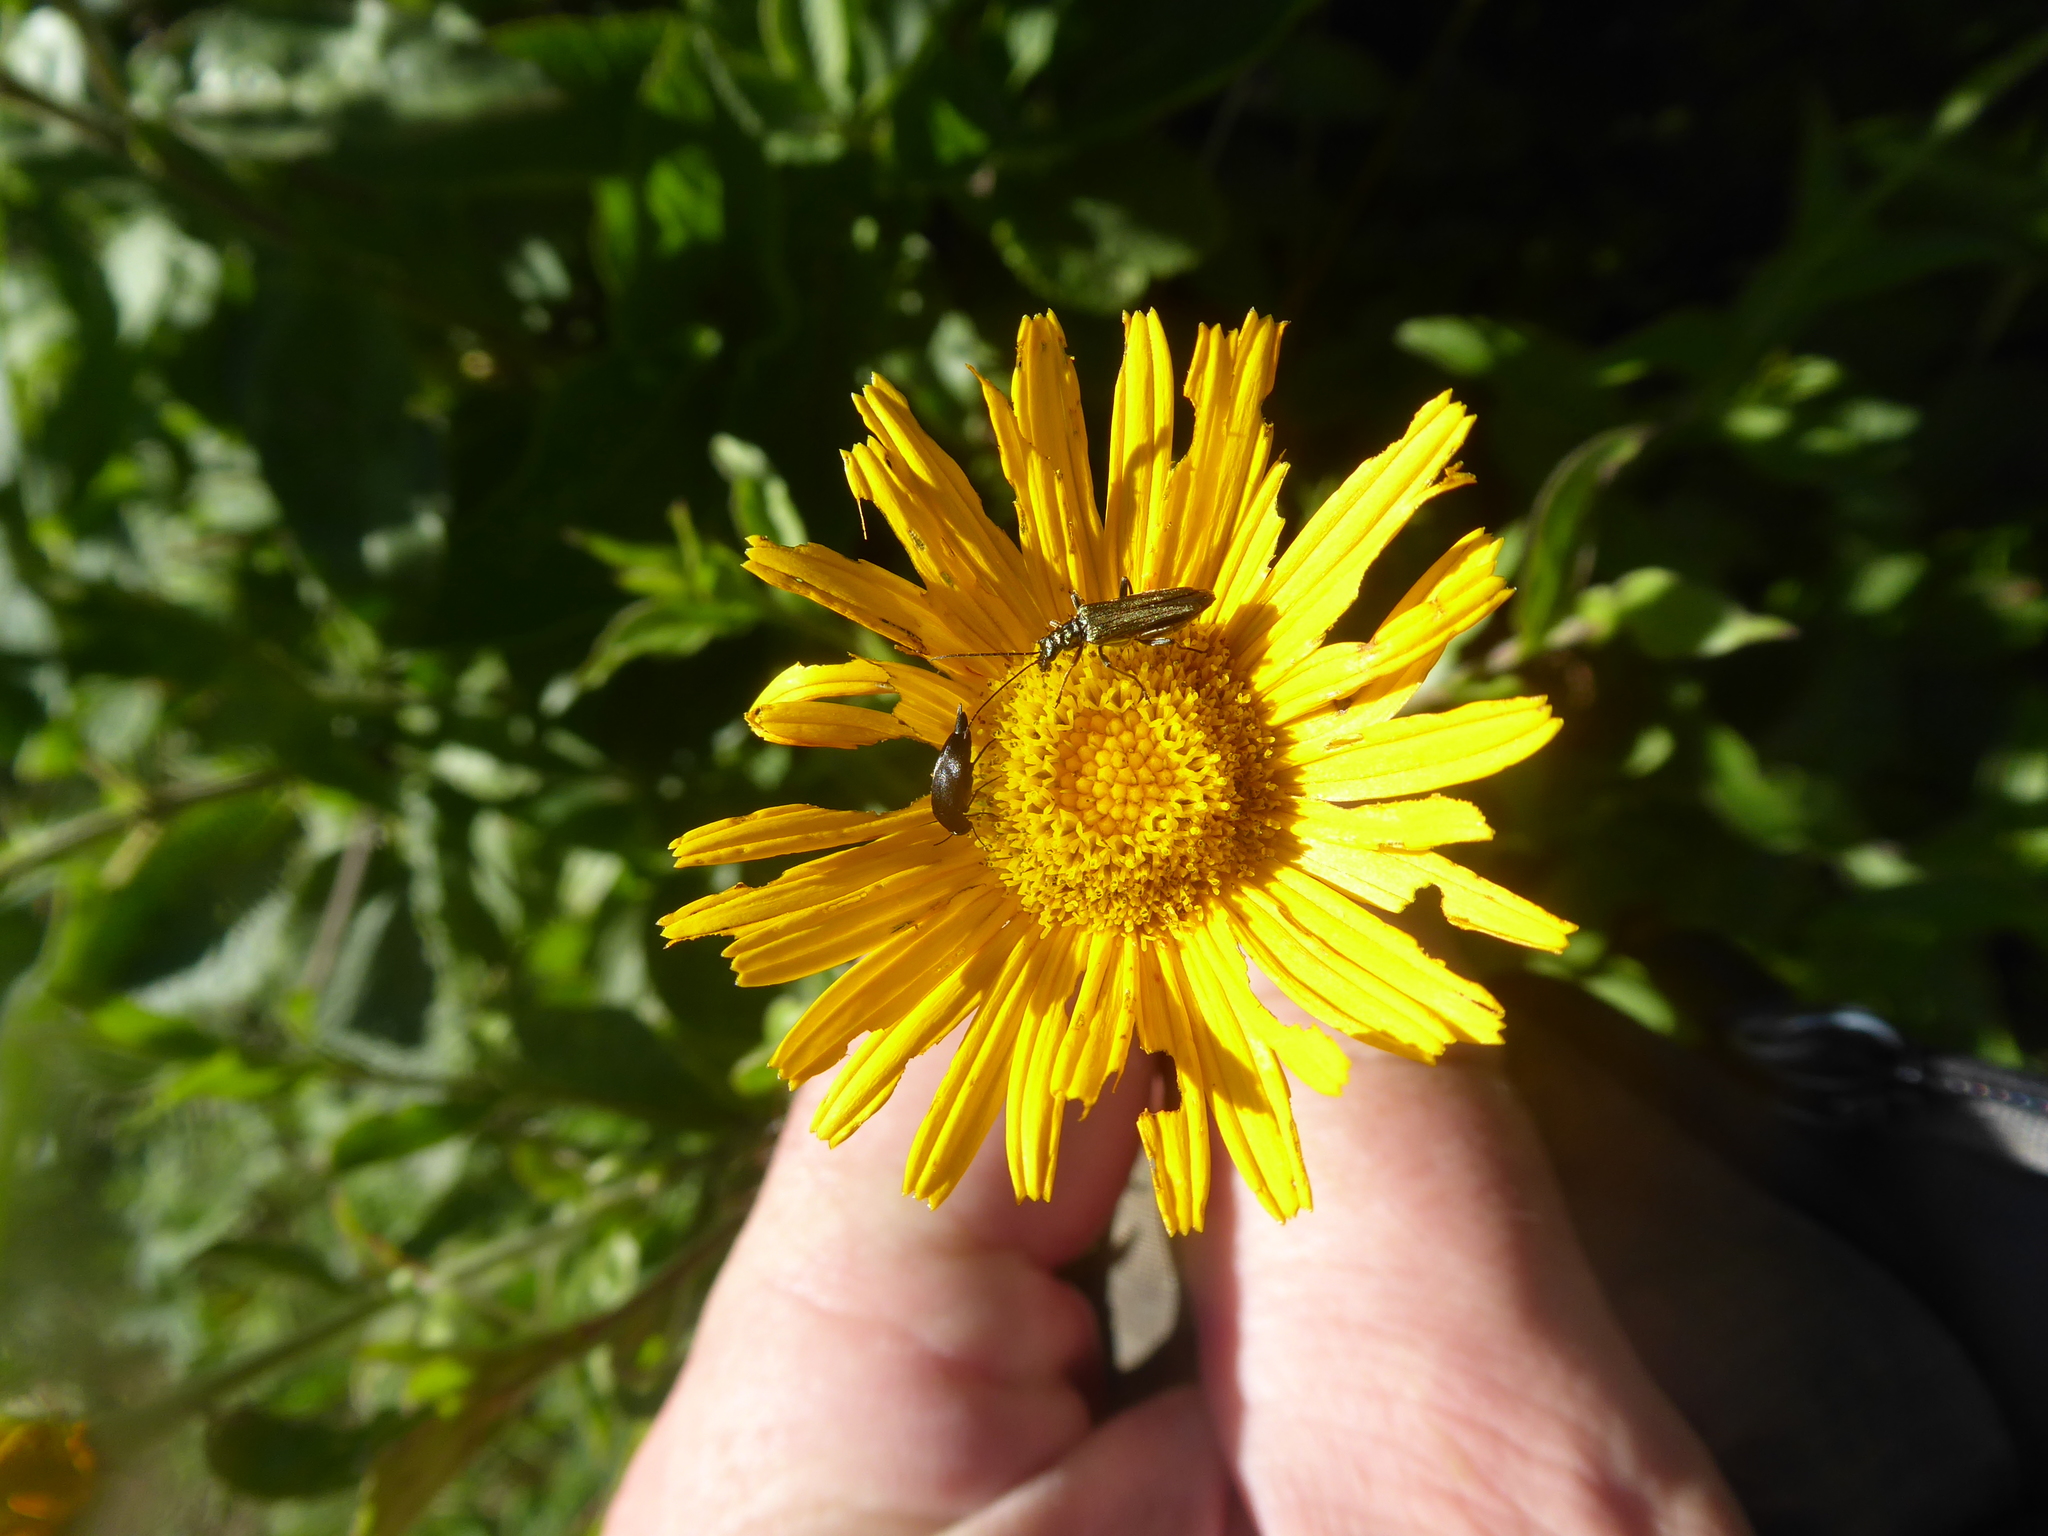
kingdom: Plantae
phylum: Tracheophyta
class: Magnoliopsida
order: Asterales
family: Asteraceae
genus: Buphthalmum
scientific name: Buphthalmum salicifolium
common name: Willow-leaved yellow-oxeye
